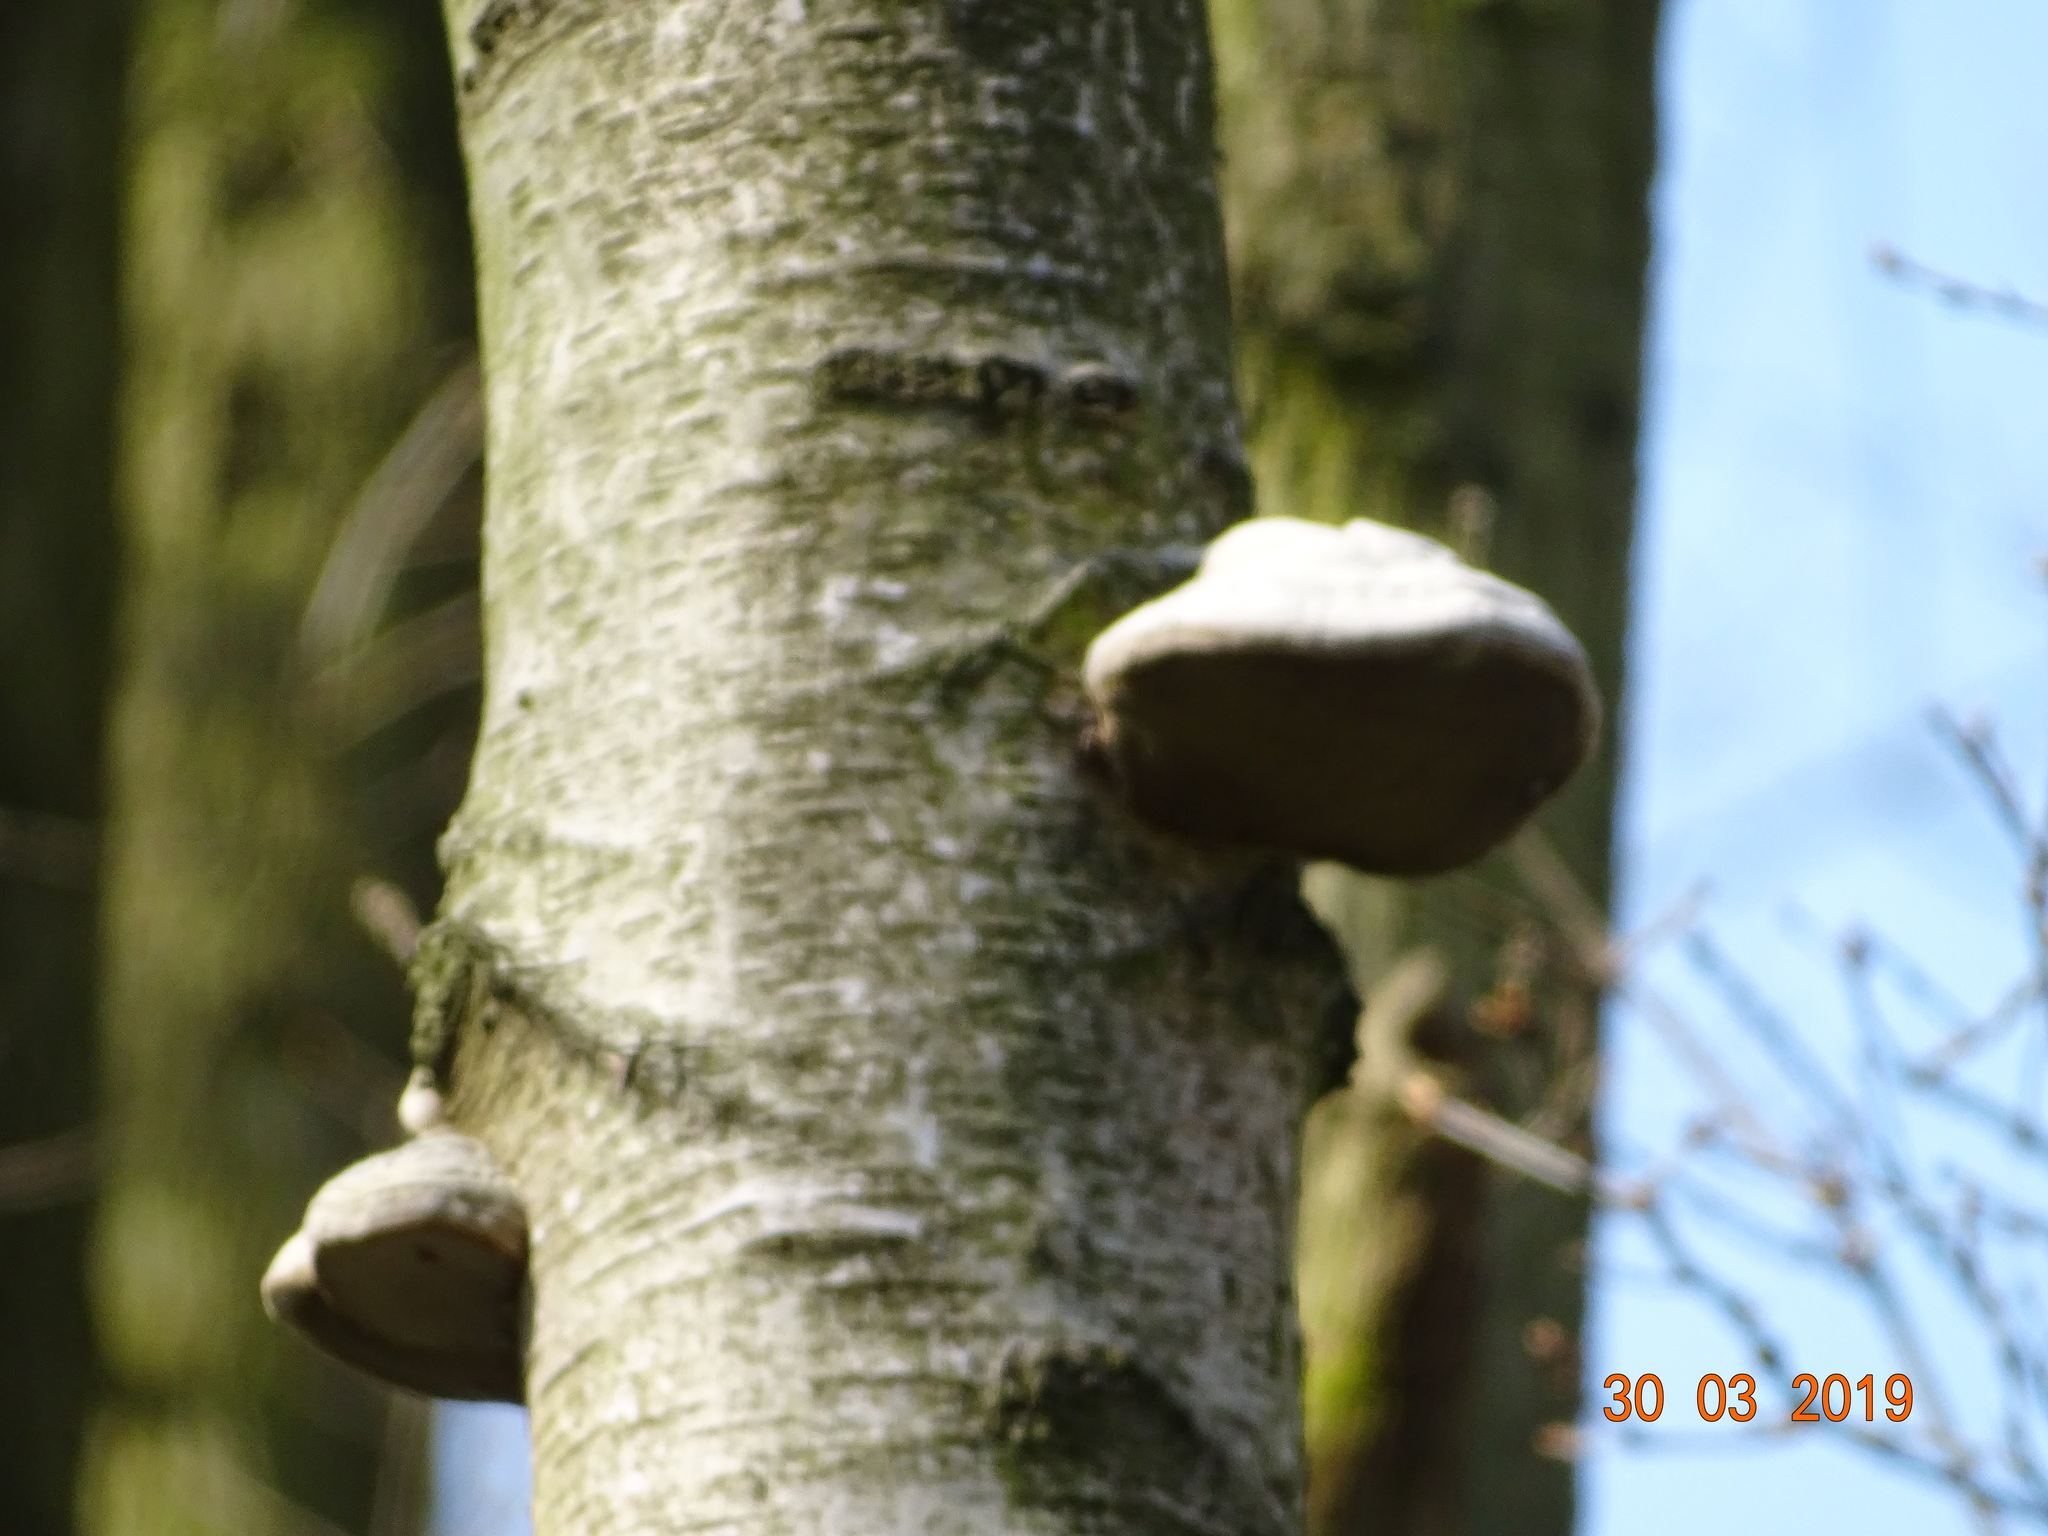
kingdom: Fungi
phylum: Basidiomycota
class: Agaricomycetes
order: Polyporales
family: Polyporaceae
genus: Fomes
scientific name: Fomes fomentarius
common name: Hoof fungus
